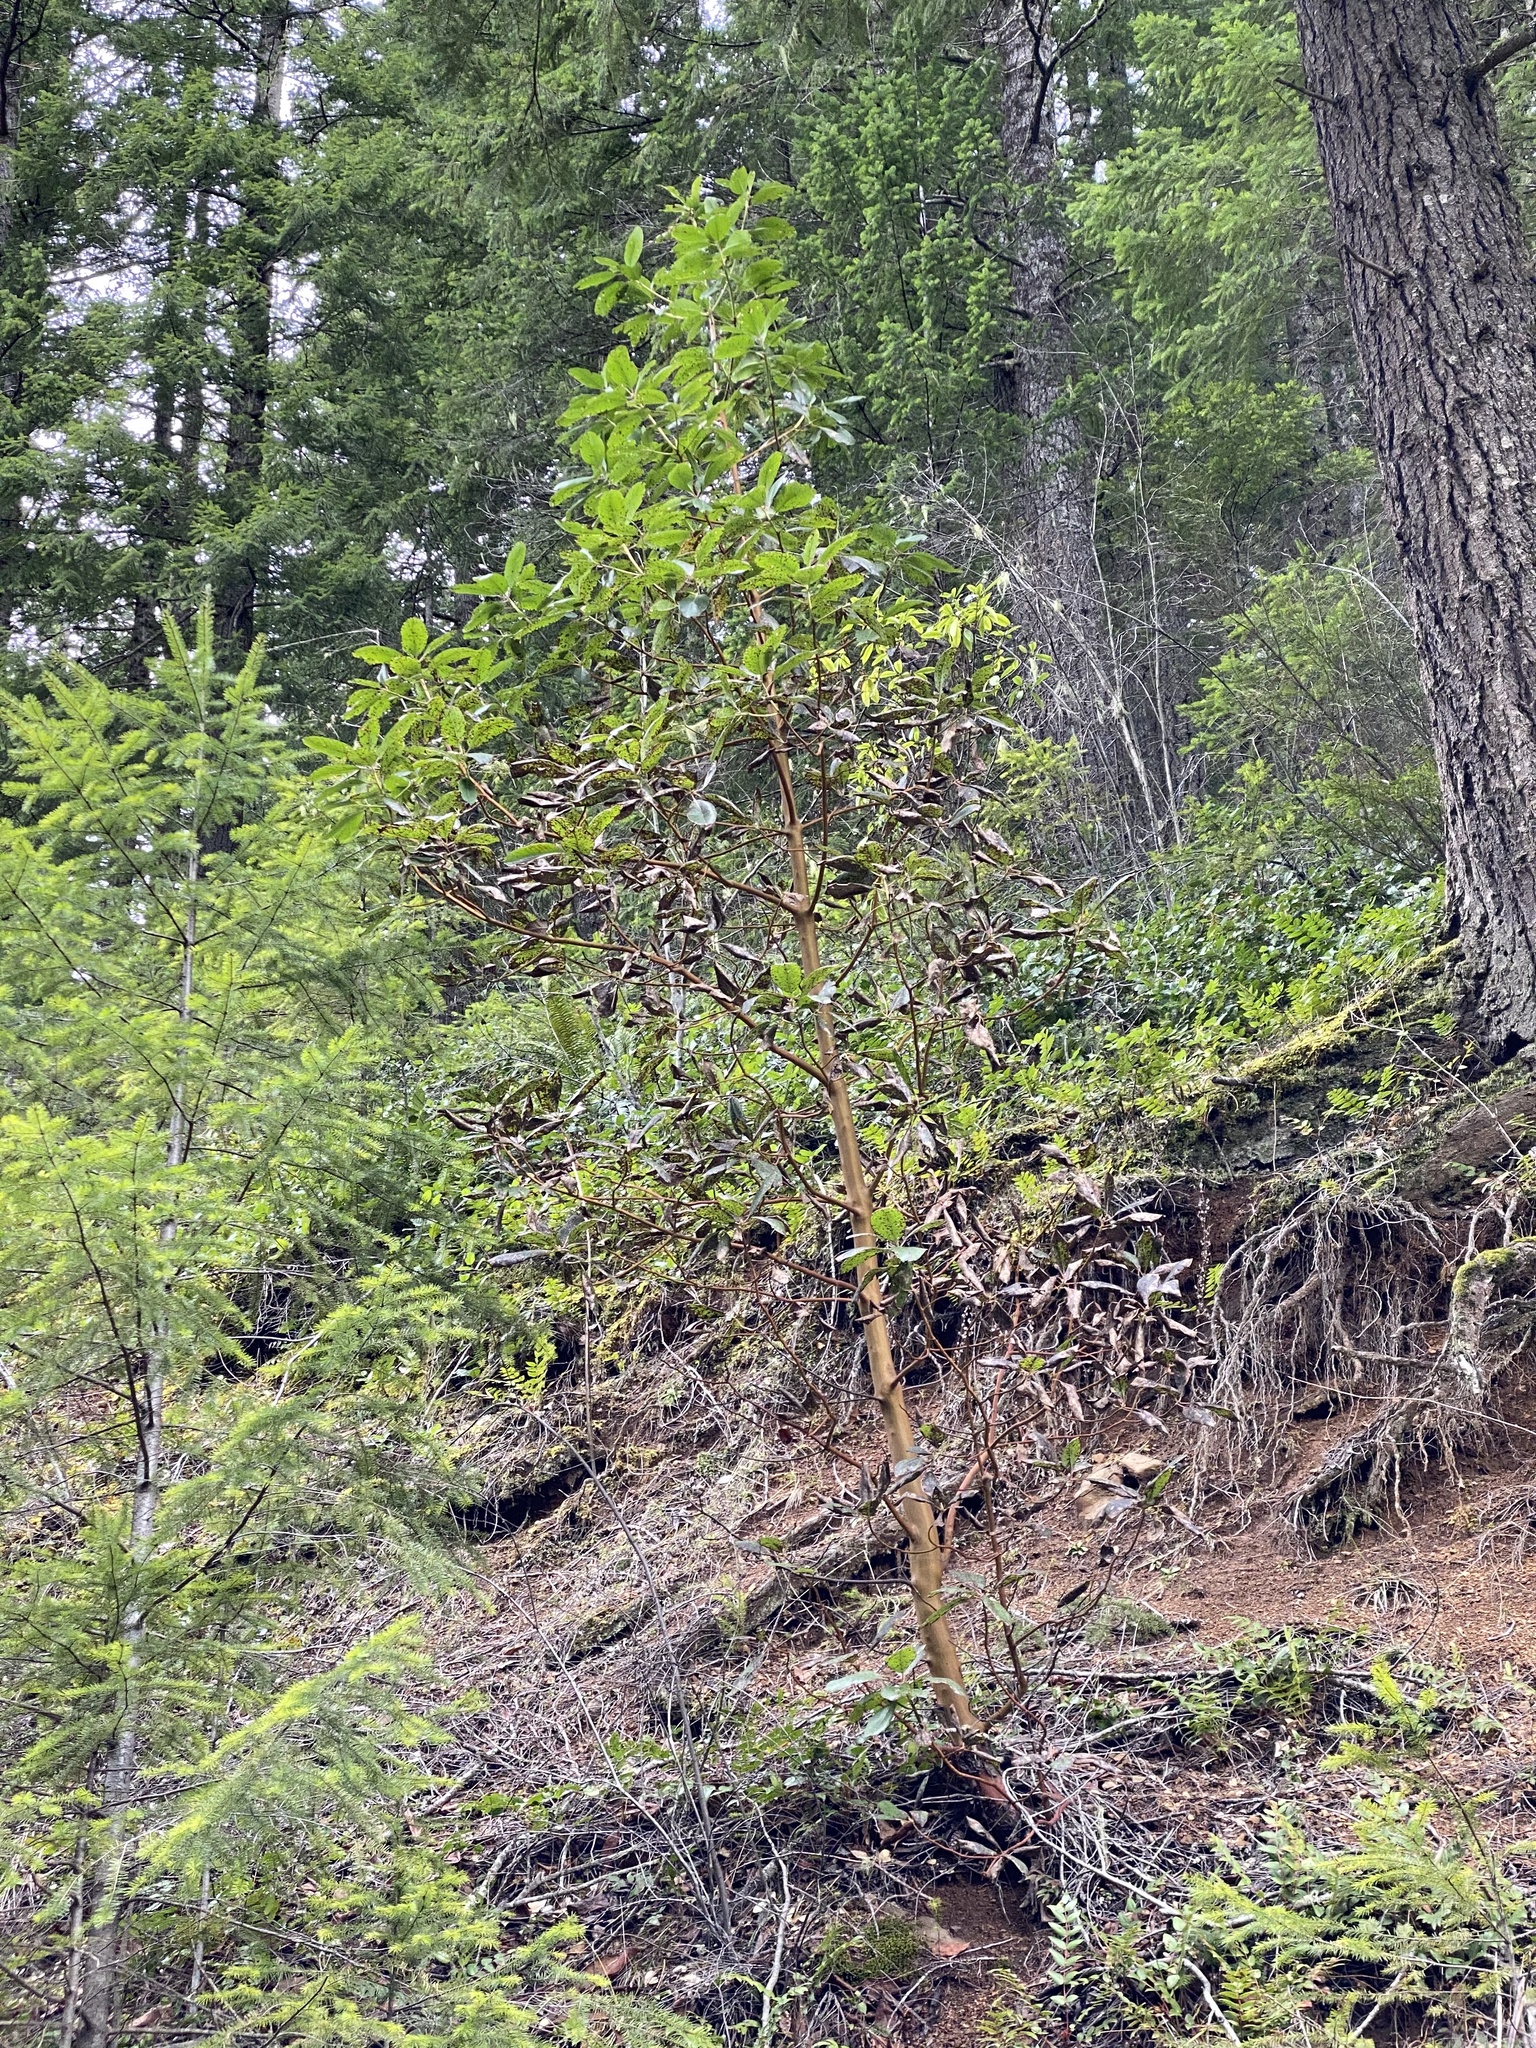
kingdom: Plantae
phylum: Tracheophyta
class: Magnoliopsida
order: Ericales
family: Ericaceae
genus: Arbutus
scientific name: Arbutus menziesii
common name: Pacific madrone
